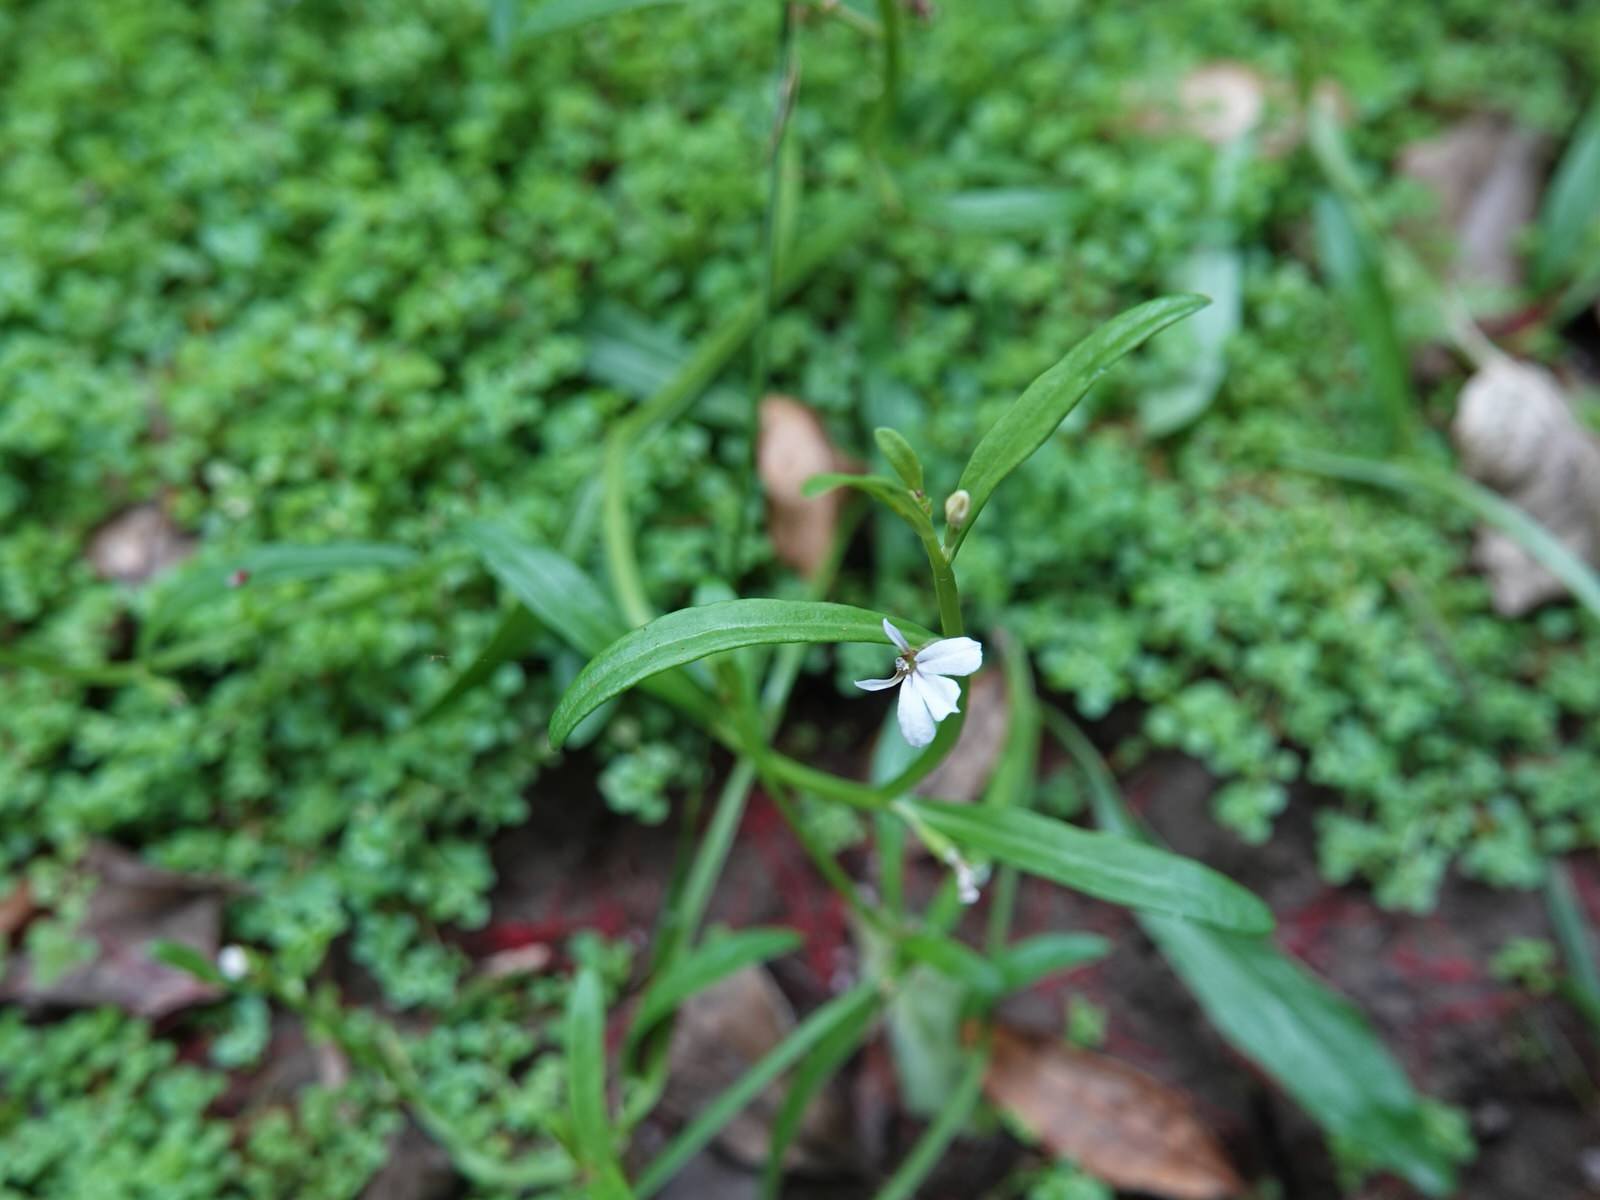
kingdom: Plantae
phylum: Tracheophyta
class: Magnoliopsida
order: Asterales
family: Campanulaceae
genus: Lobelia
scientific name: Lobelia anceps
